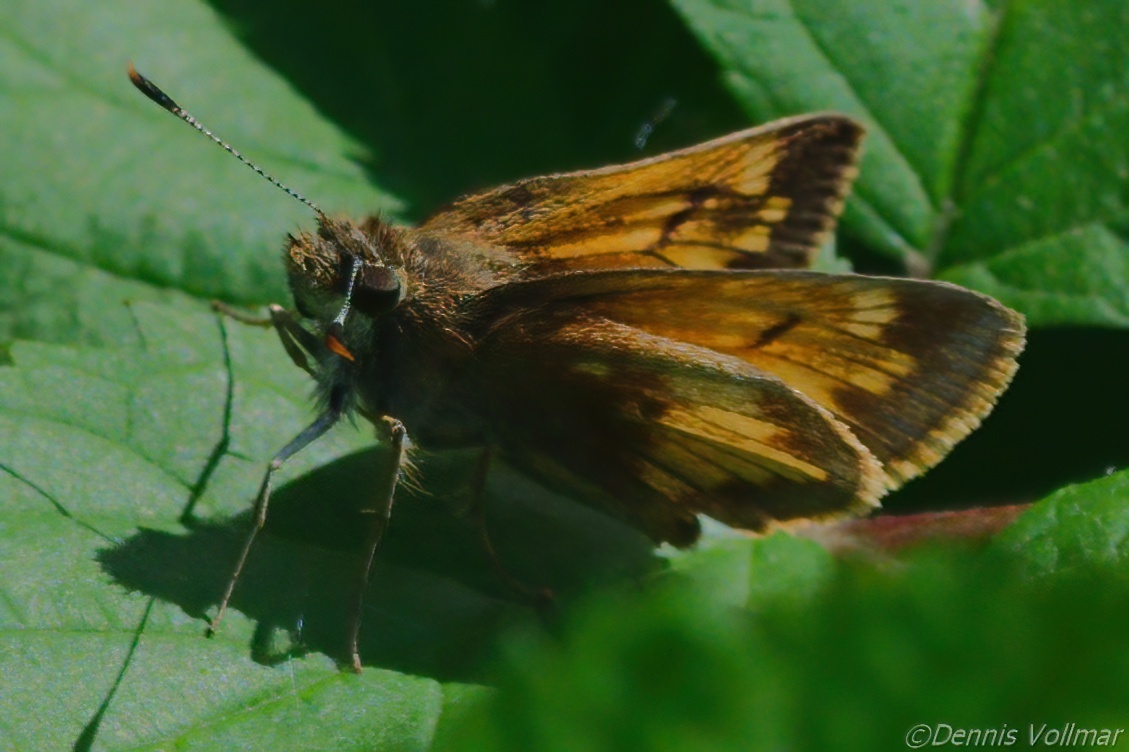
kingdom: Animalia
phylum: Arthropoda
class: Insecta
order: Lepidoptera
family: Hesperiidae
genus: Lon
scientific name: Lon hobomok
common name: Hobomok skipper
